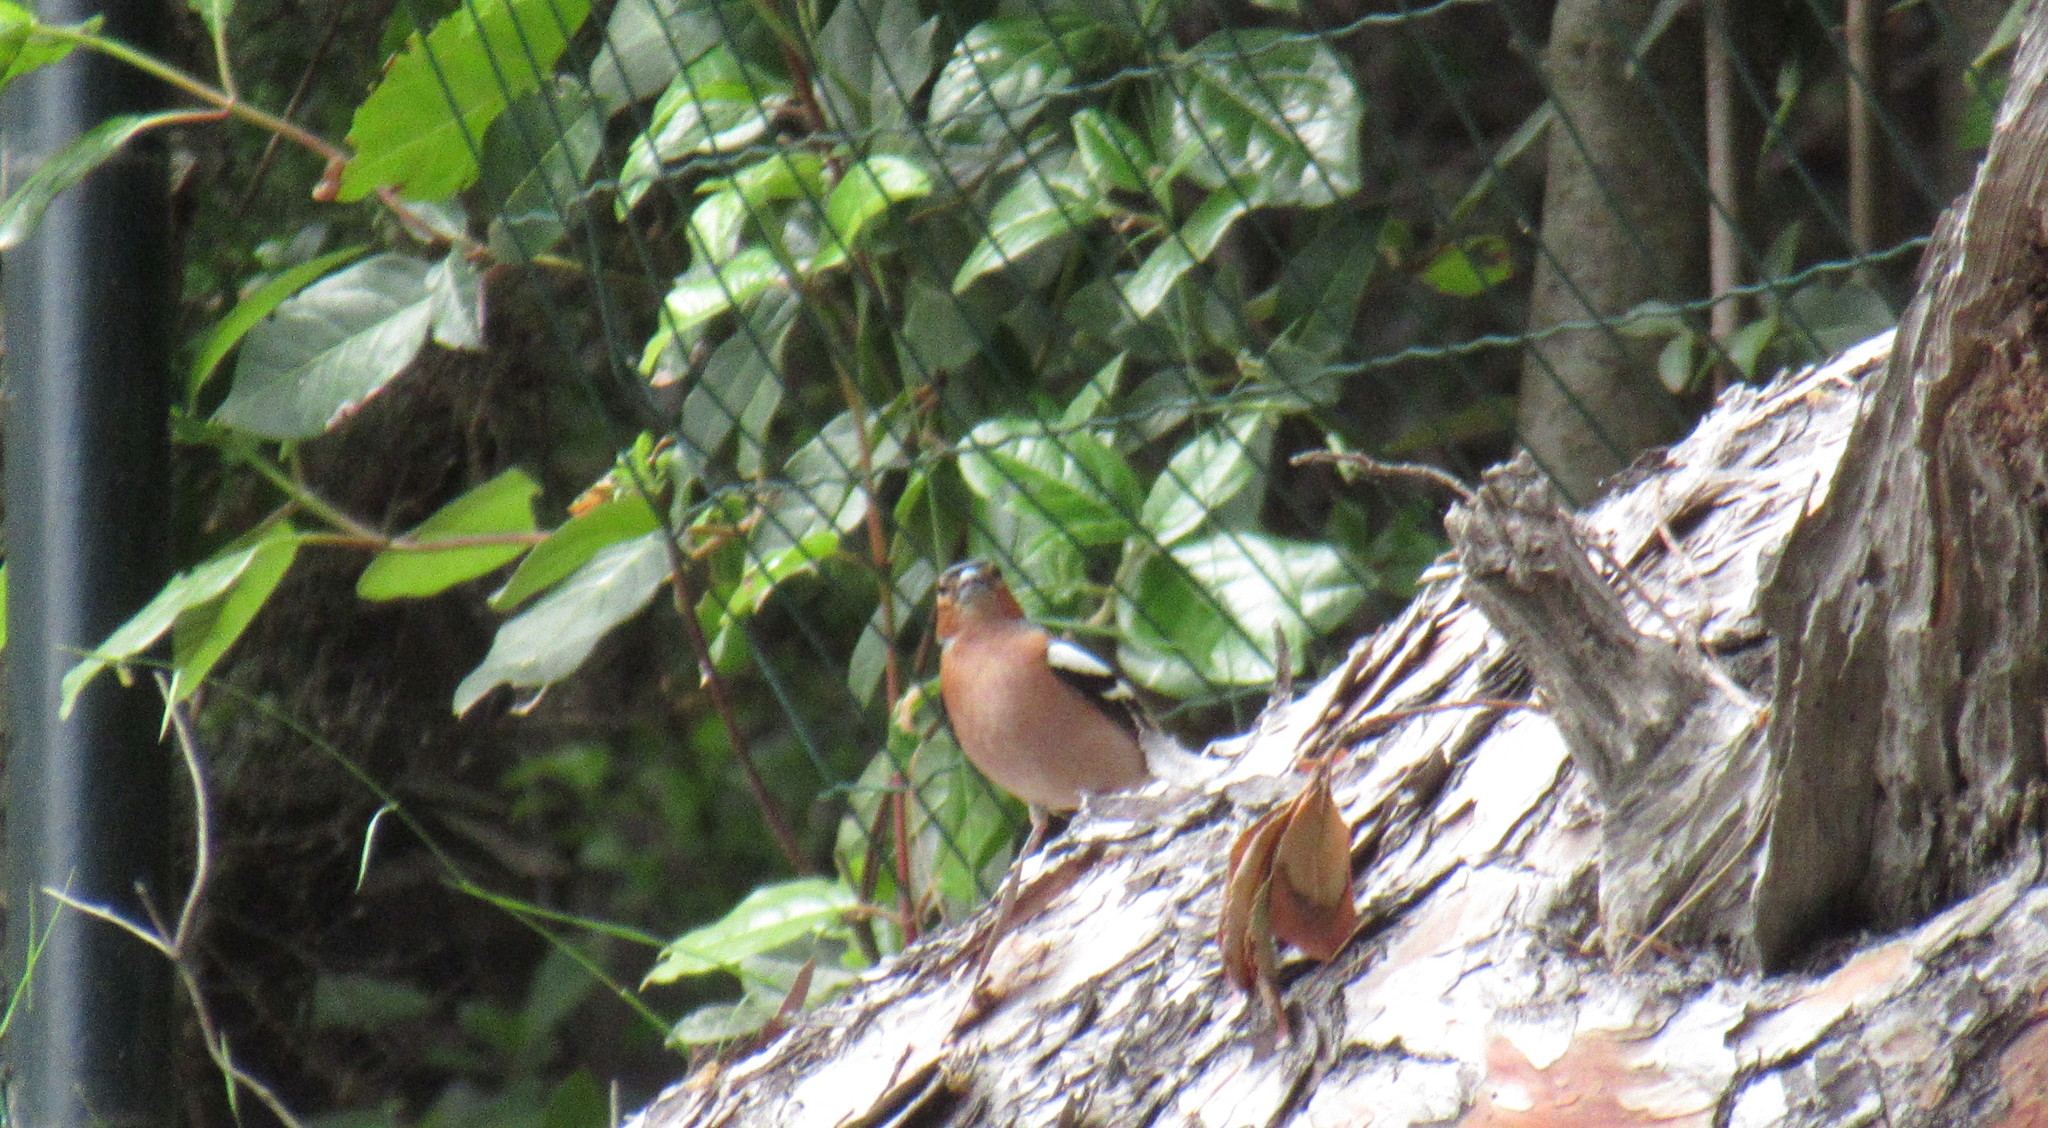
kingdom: Animalia
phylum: Chordata
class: Aves
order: Passeriformes
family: Fringillidae
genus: Fringilla
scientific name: Fringilla coelebs
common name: Common chaffinch
